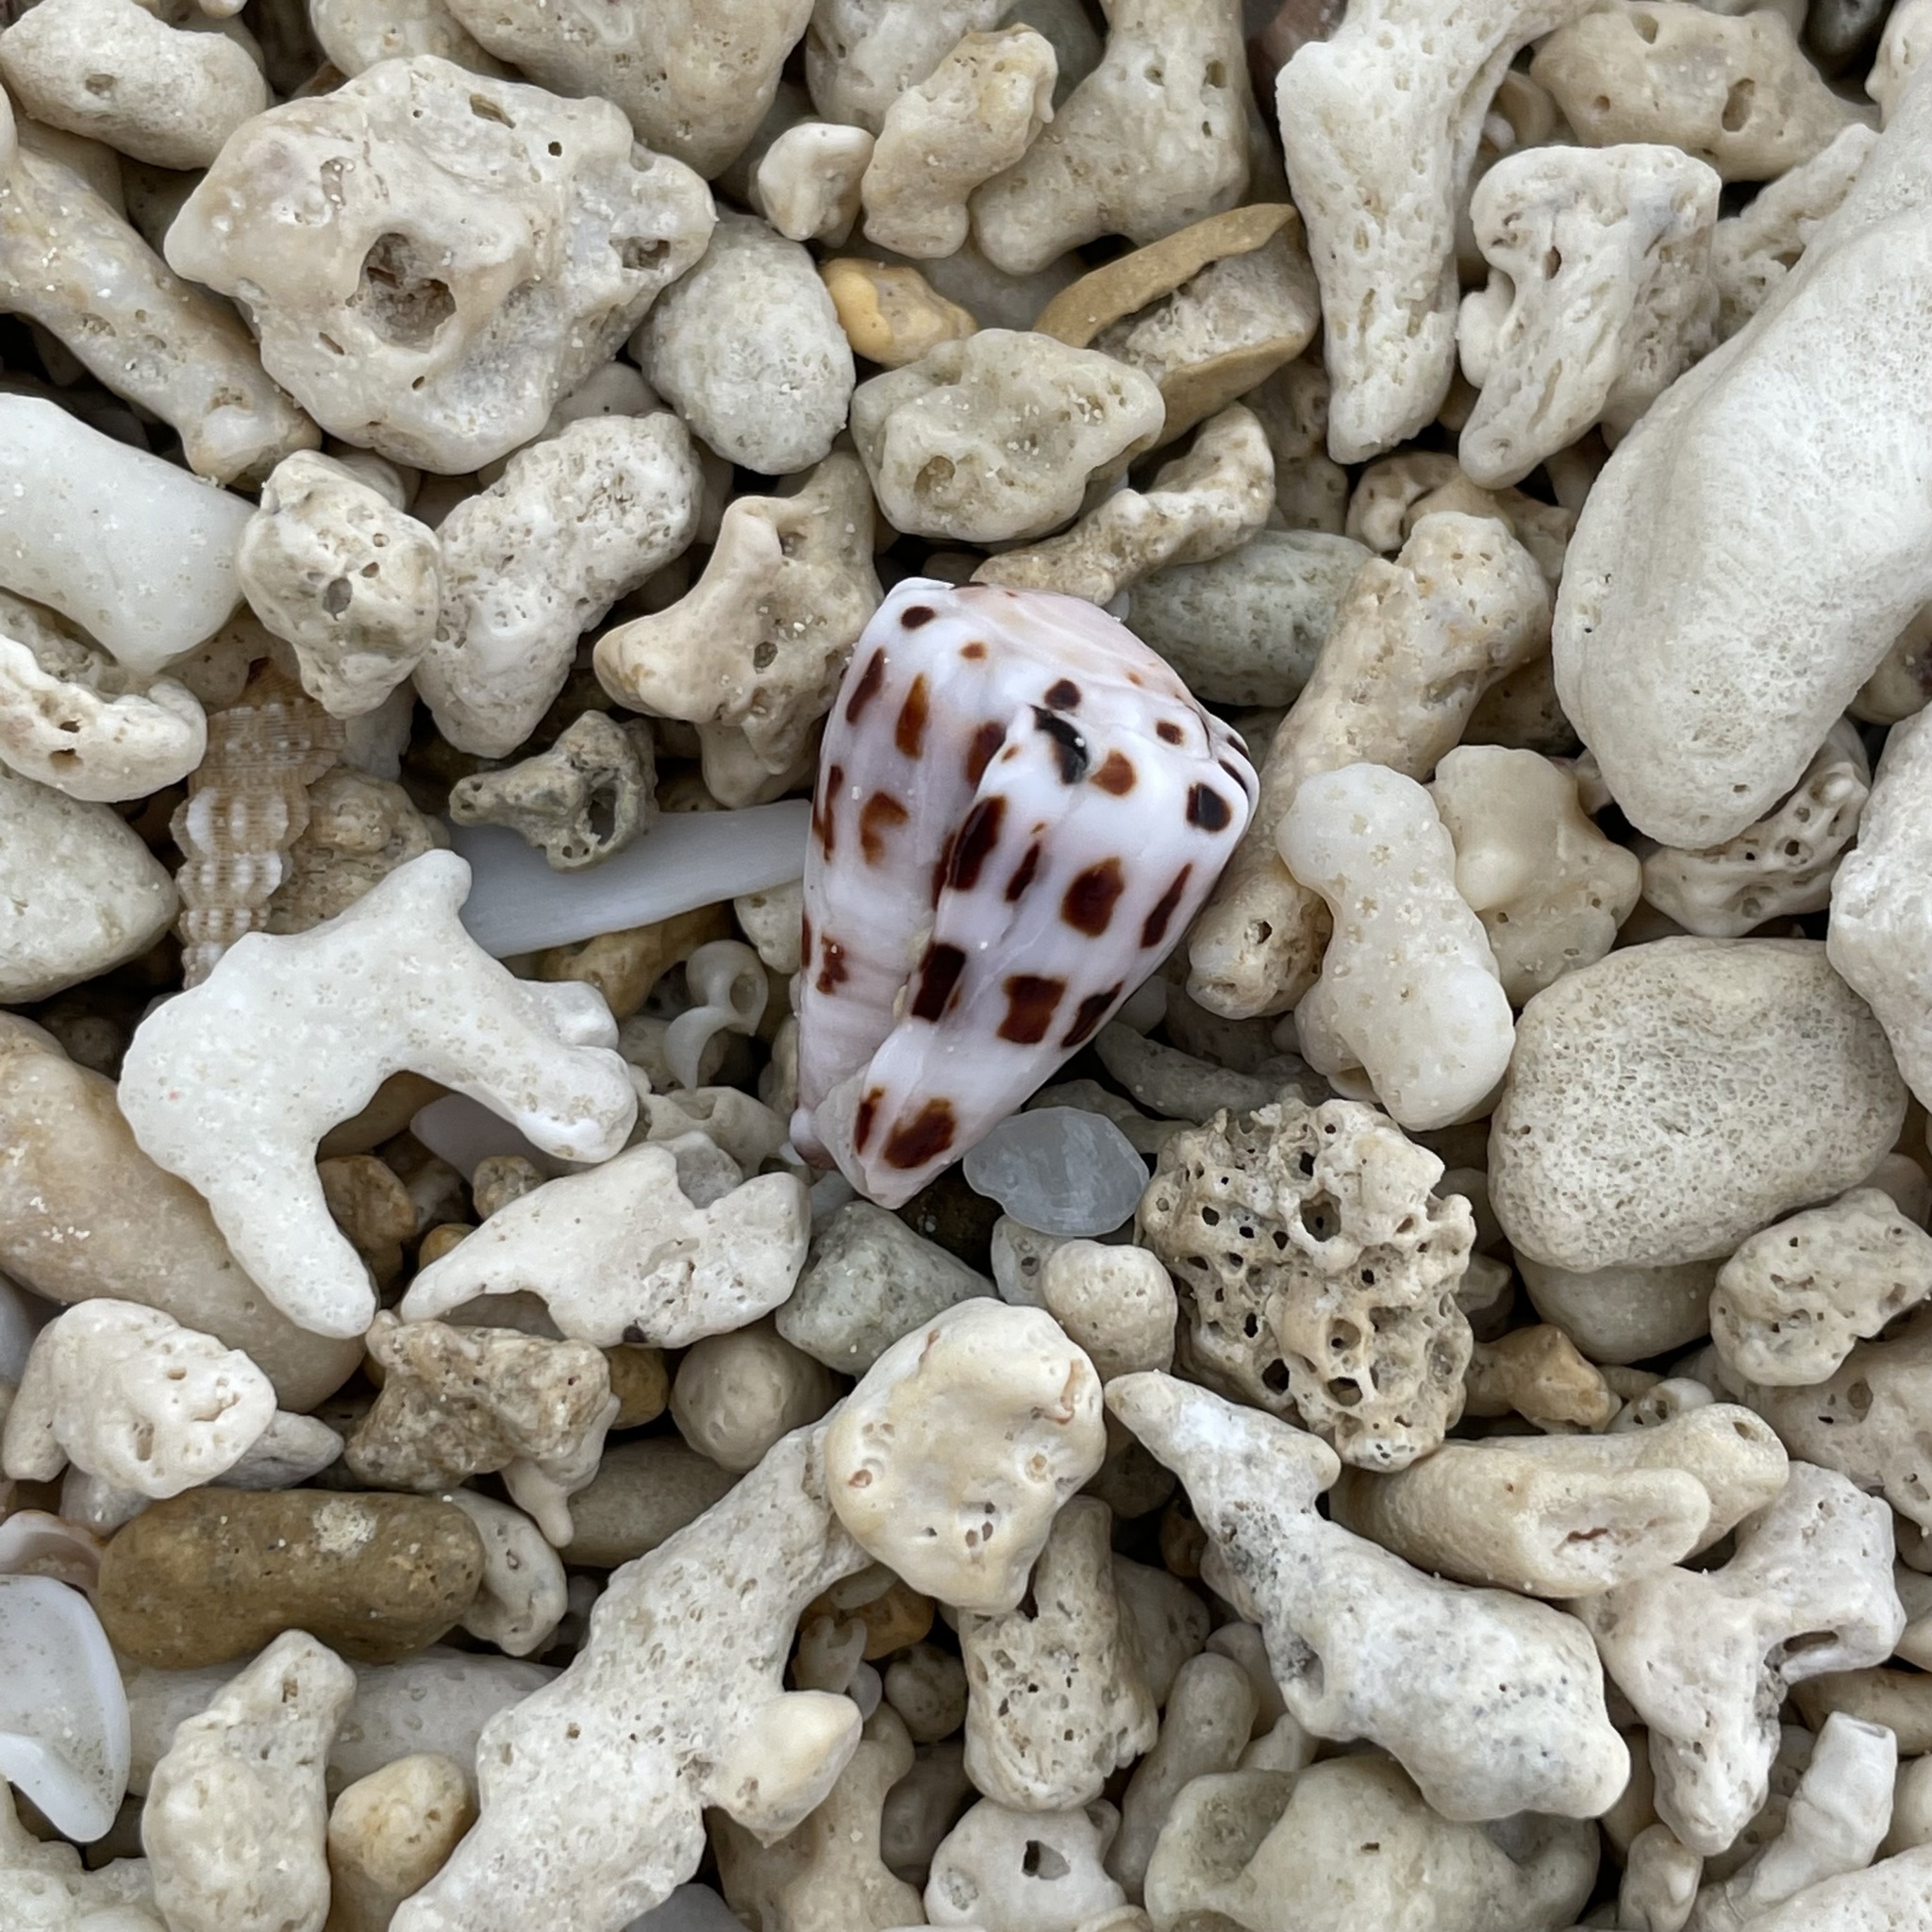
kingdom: Animalia
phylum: Mollusca
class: Gastropoda
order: Neogastropoda
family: Conidae
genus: Conus
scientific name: Conus ebraeus
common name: Hebrew cone
